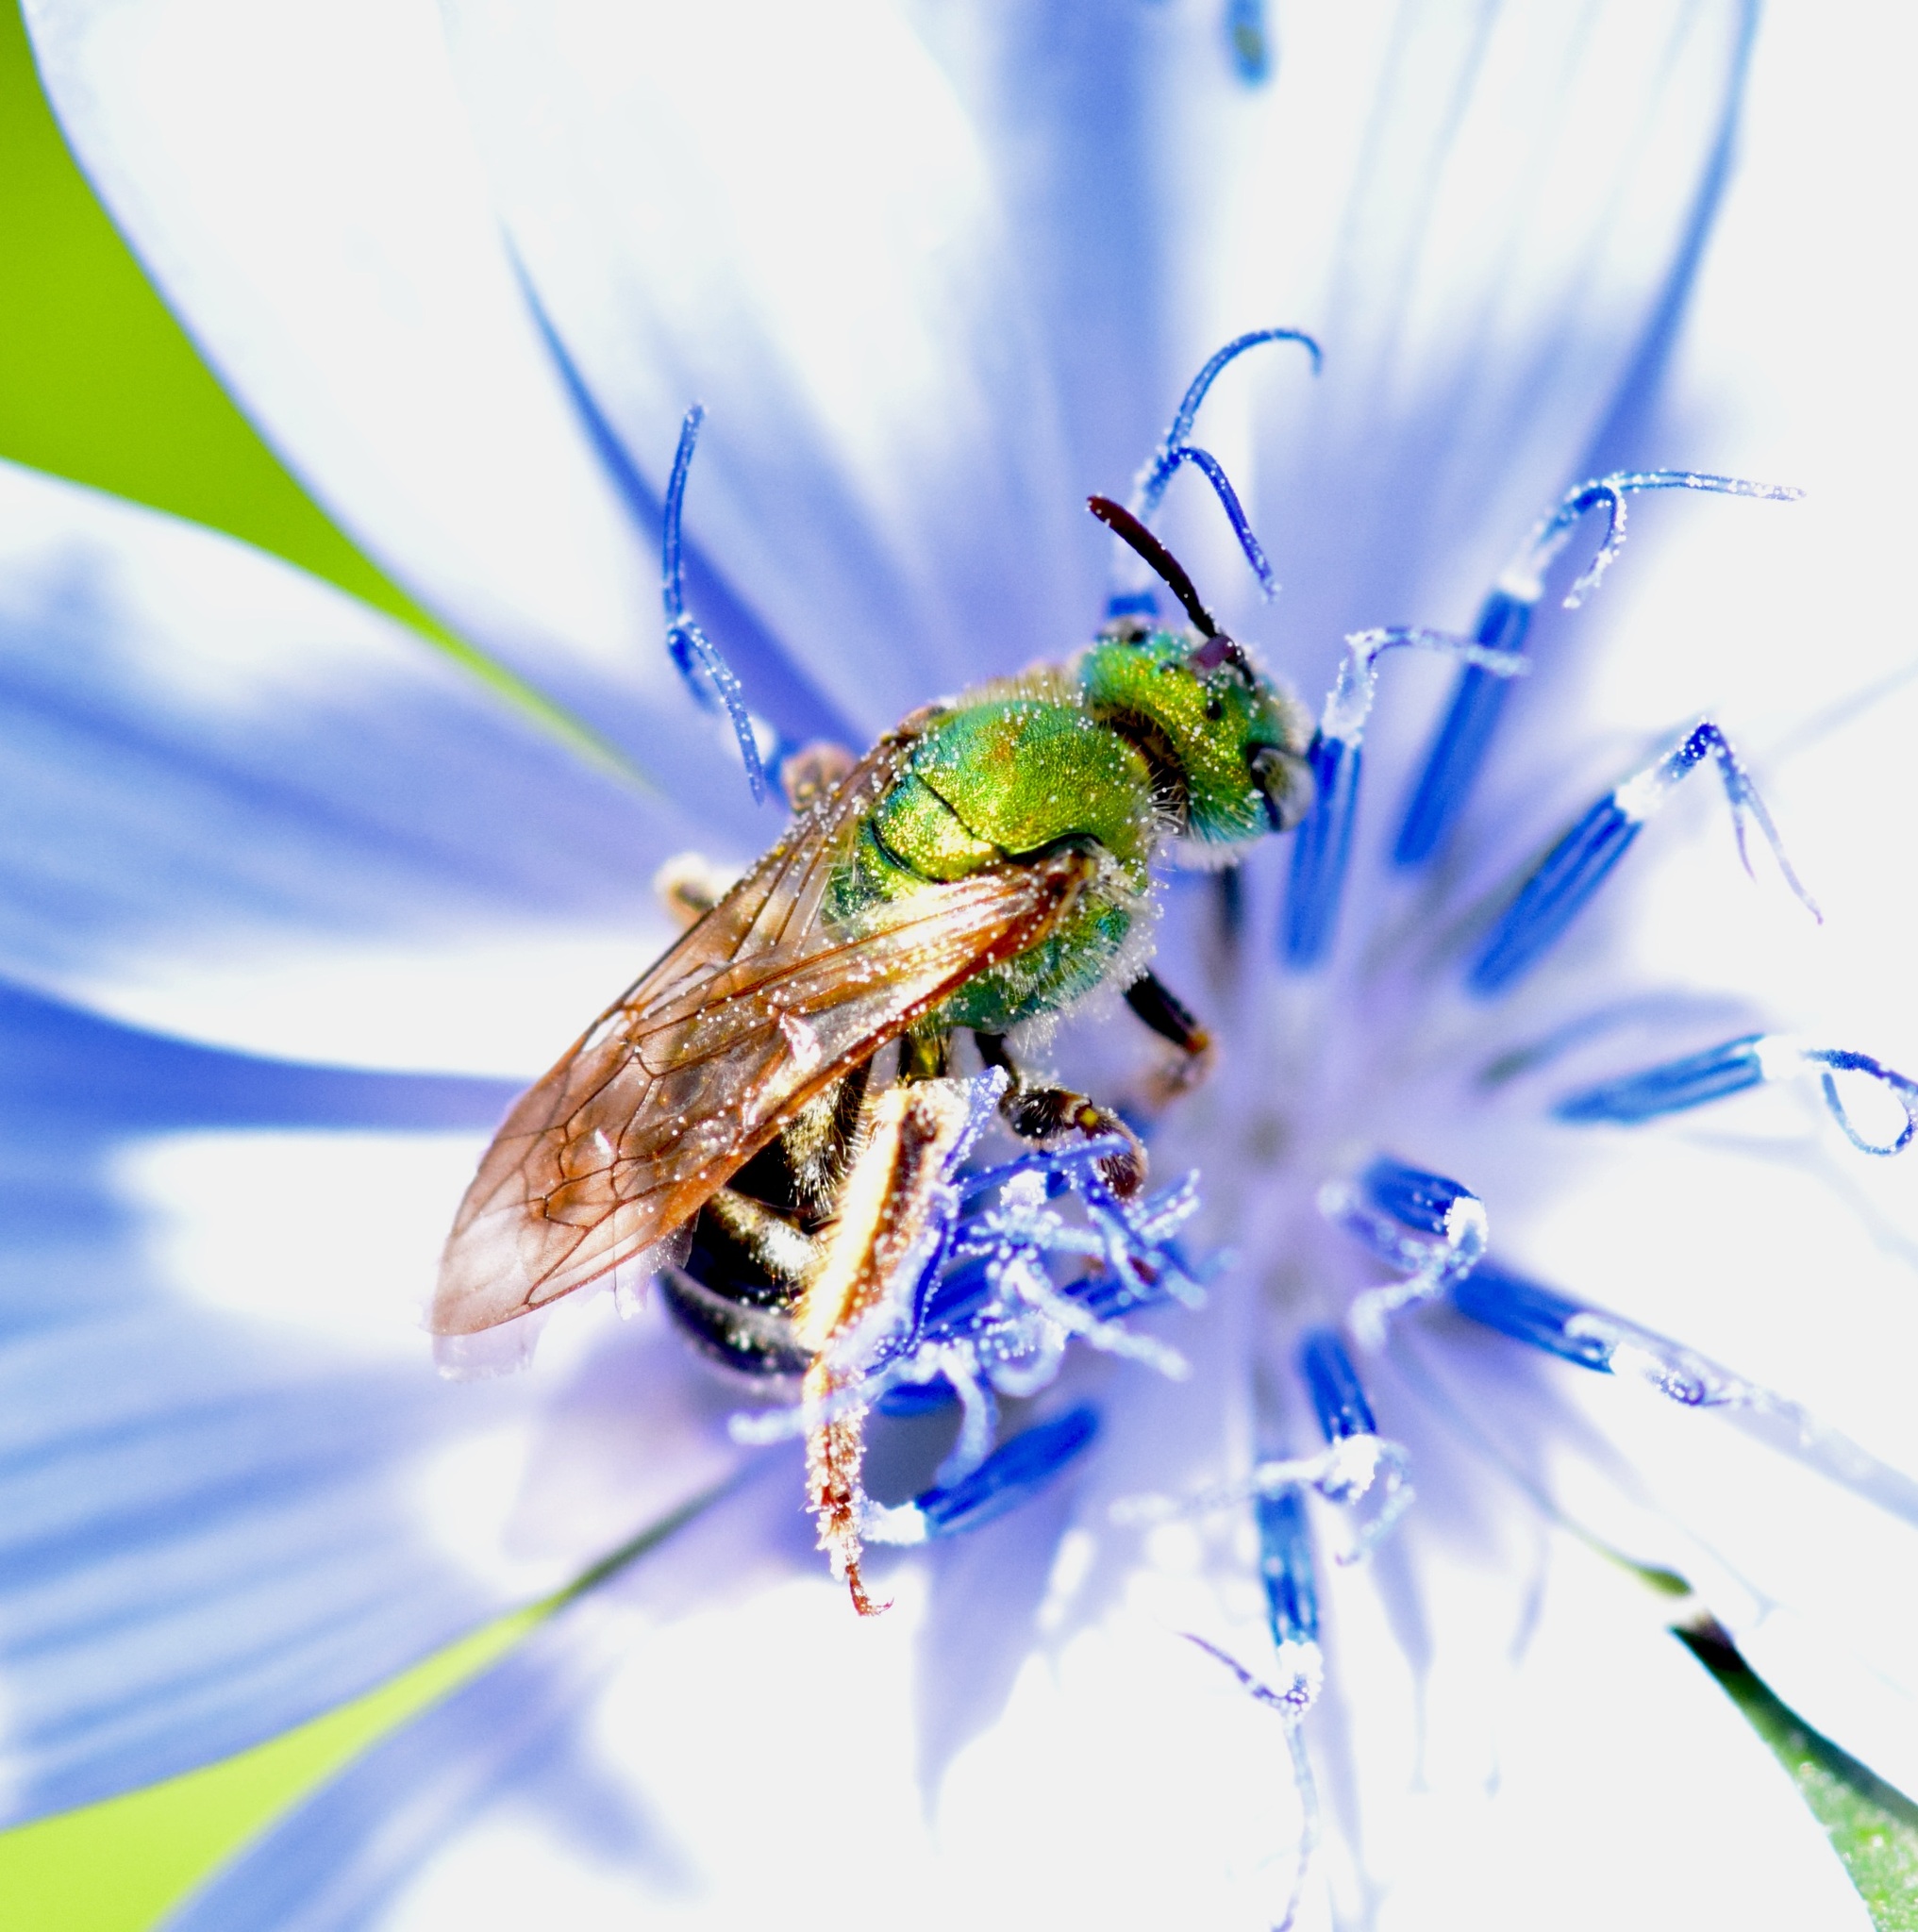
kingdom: Animalia
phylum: Arthropoda
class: Insecta
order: Hymenoptera
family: Halictidae
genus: Agapostemon
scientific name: Agapostemon virescens
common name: Bicolored striped sweat bee
